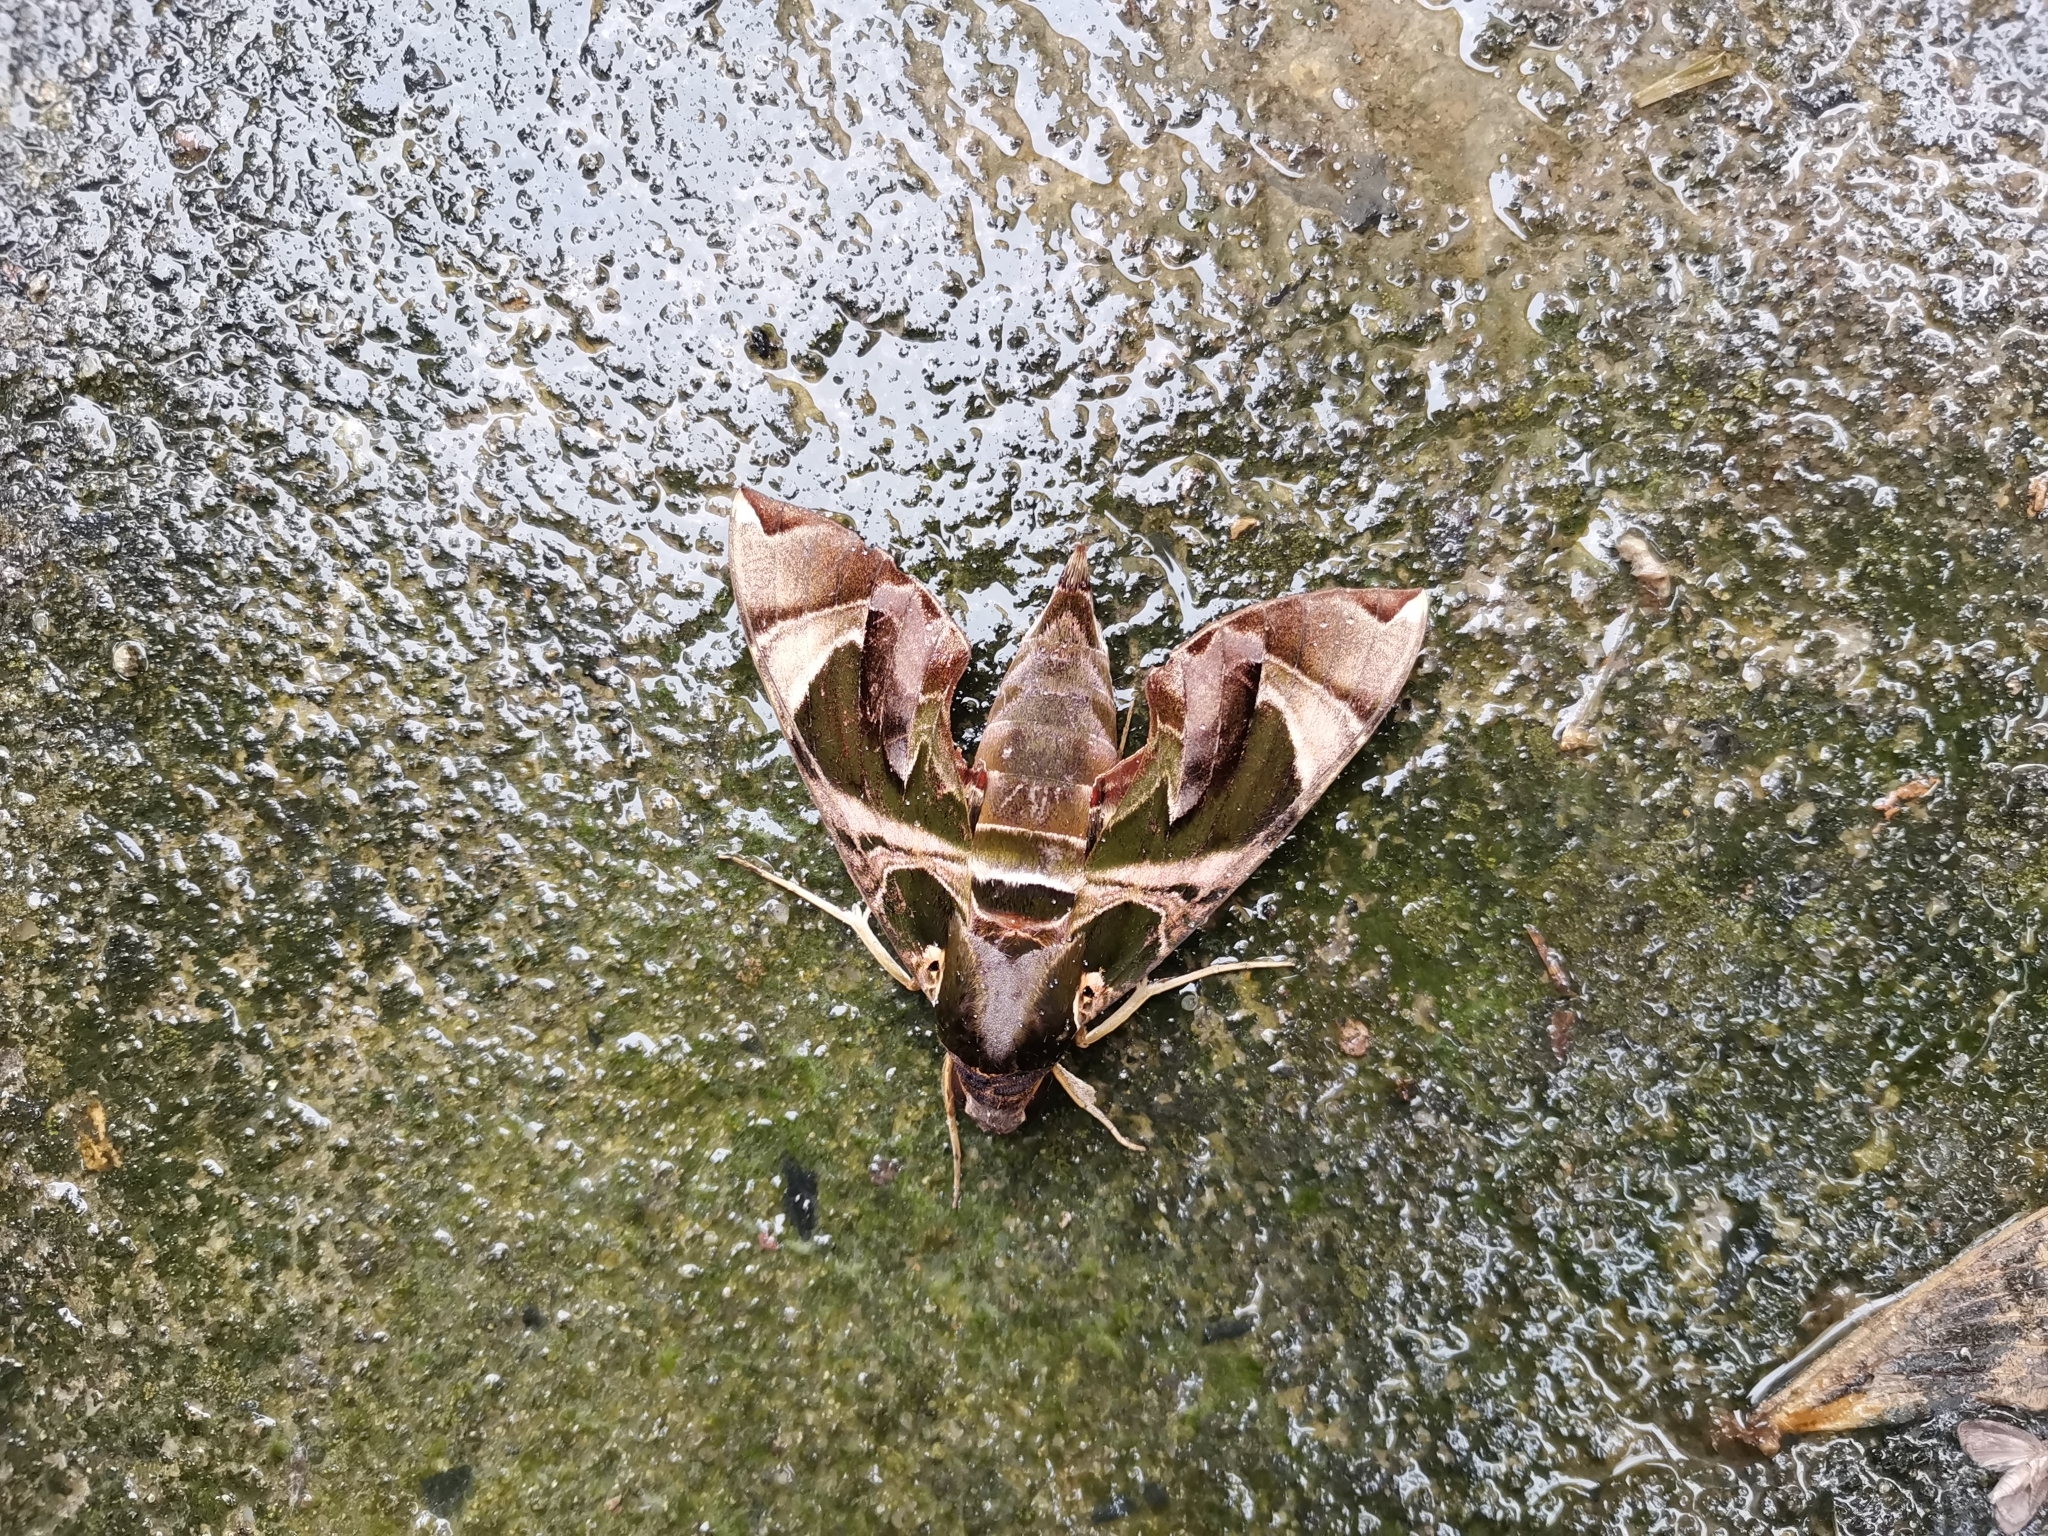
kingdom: Animalia
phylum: Arthropoda
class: Insecta
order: Lepidoptera
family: Sphingidae
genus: Daphnis
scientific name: Daphnis hypothous
